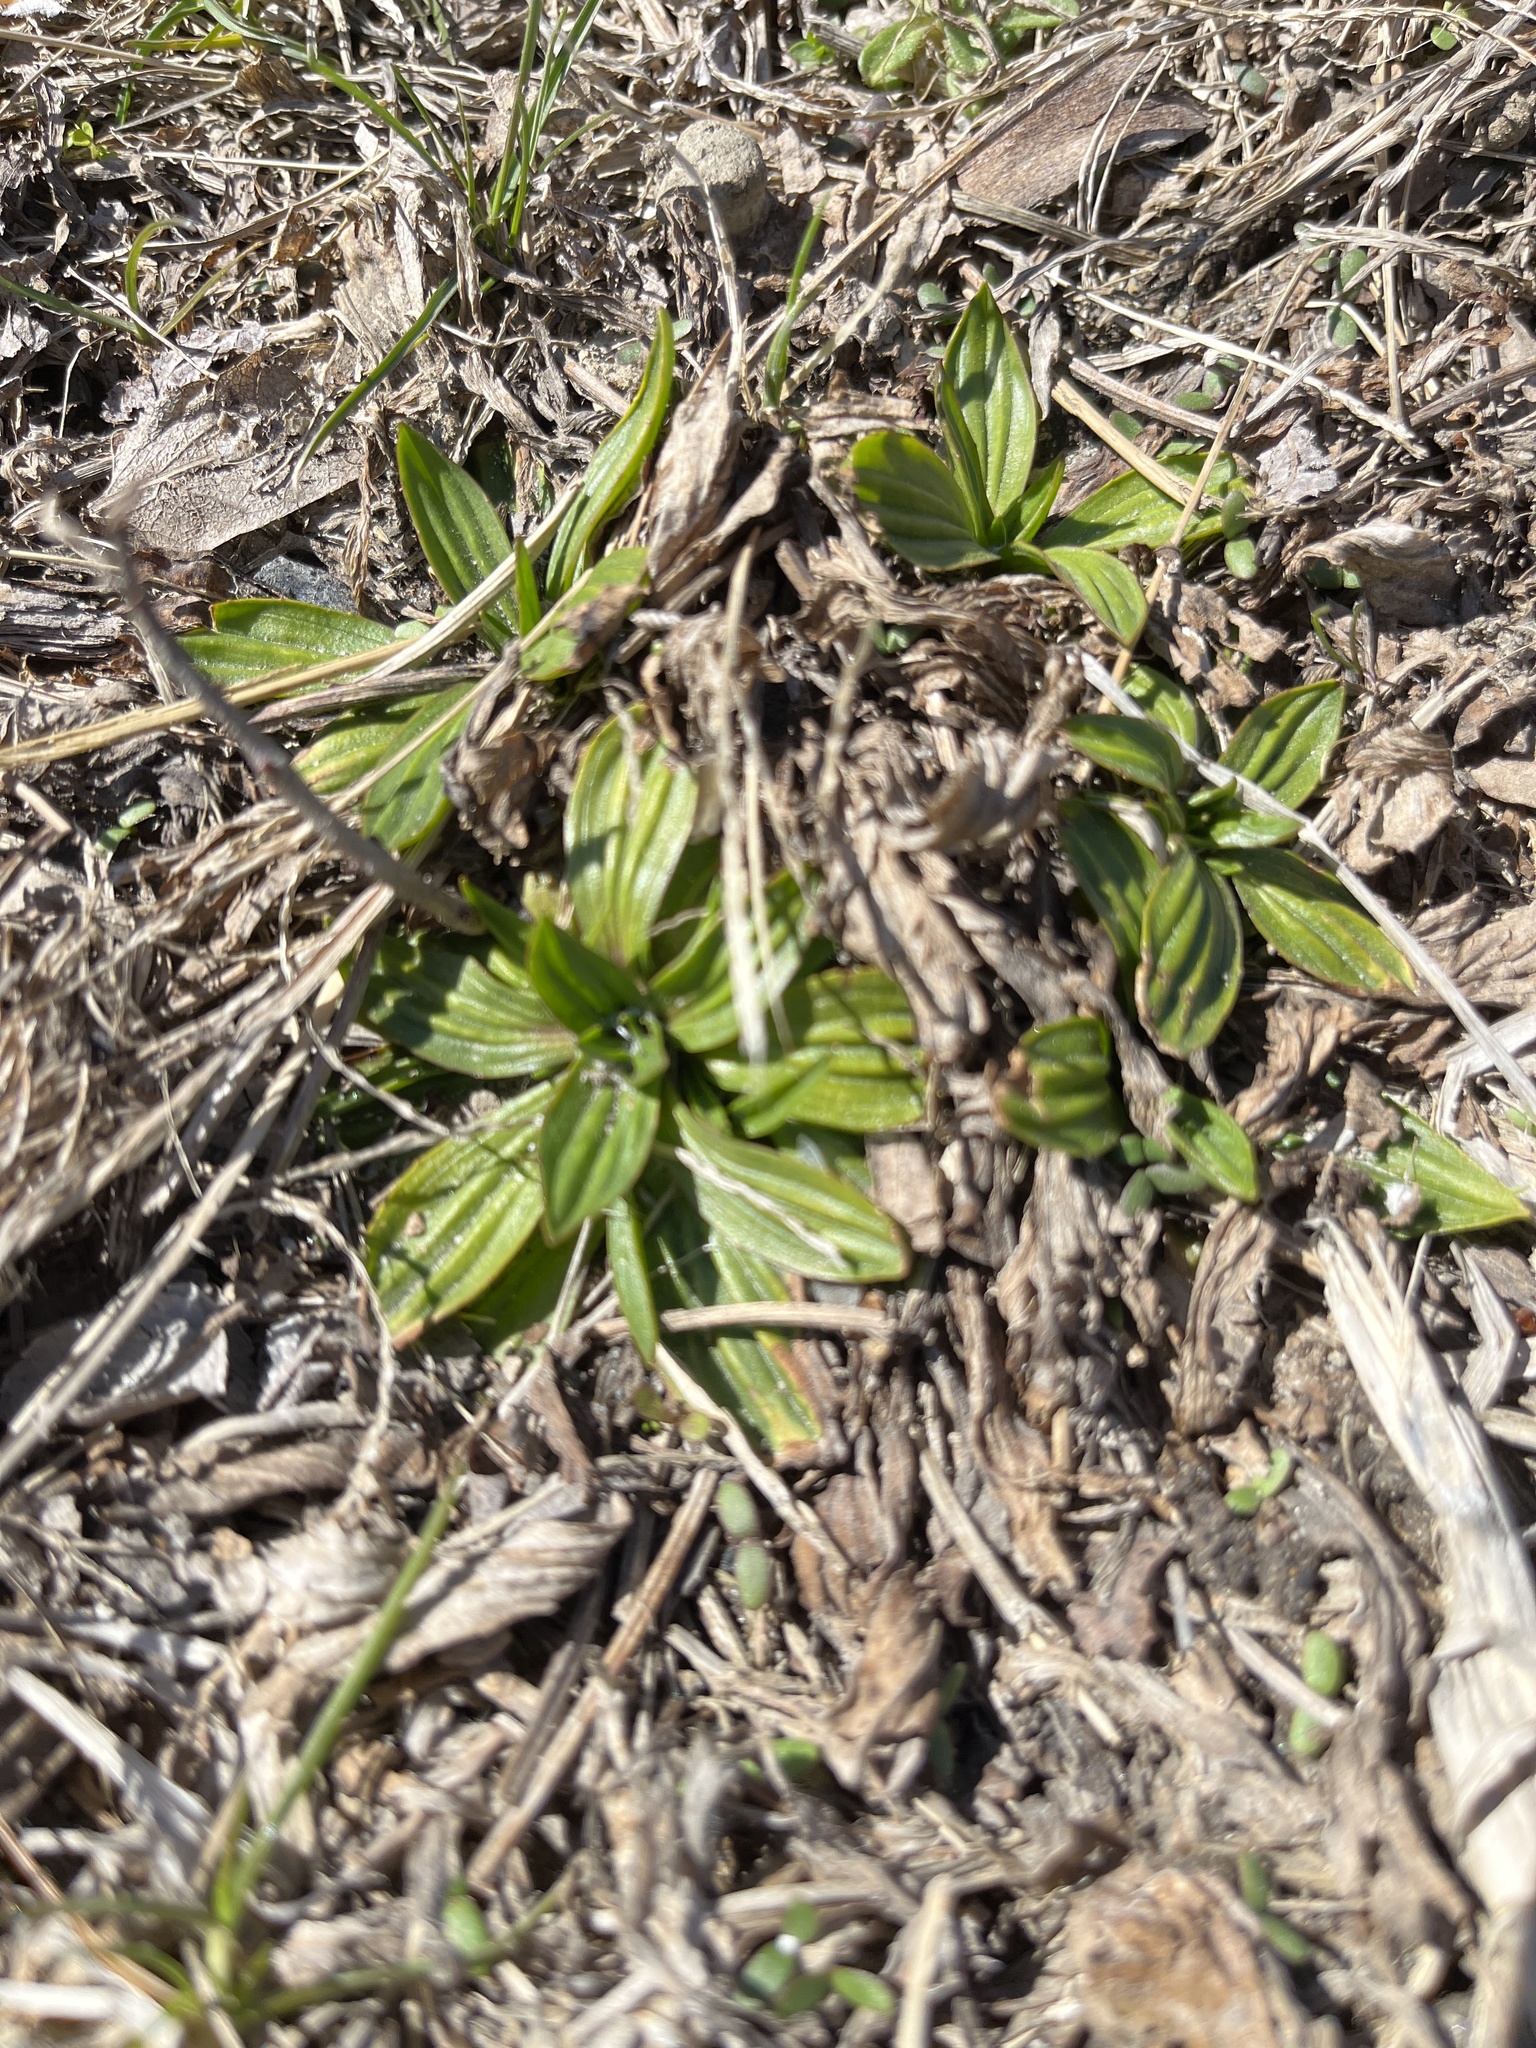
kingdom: Plantae
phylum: Tracheophyta
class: Magnoliopsida
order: Lamiales
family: Plantaginaceae
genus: Plantago
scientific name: Plantago lanceolata
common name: Ribwort plantain
